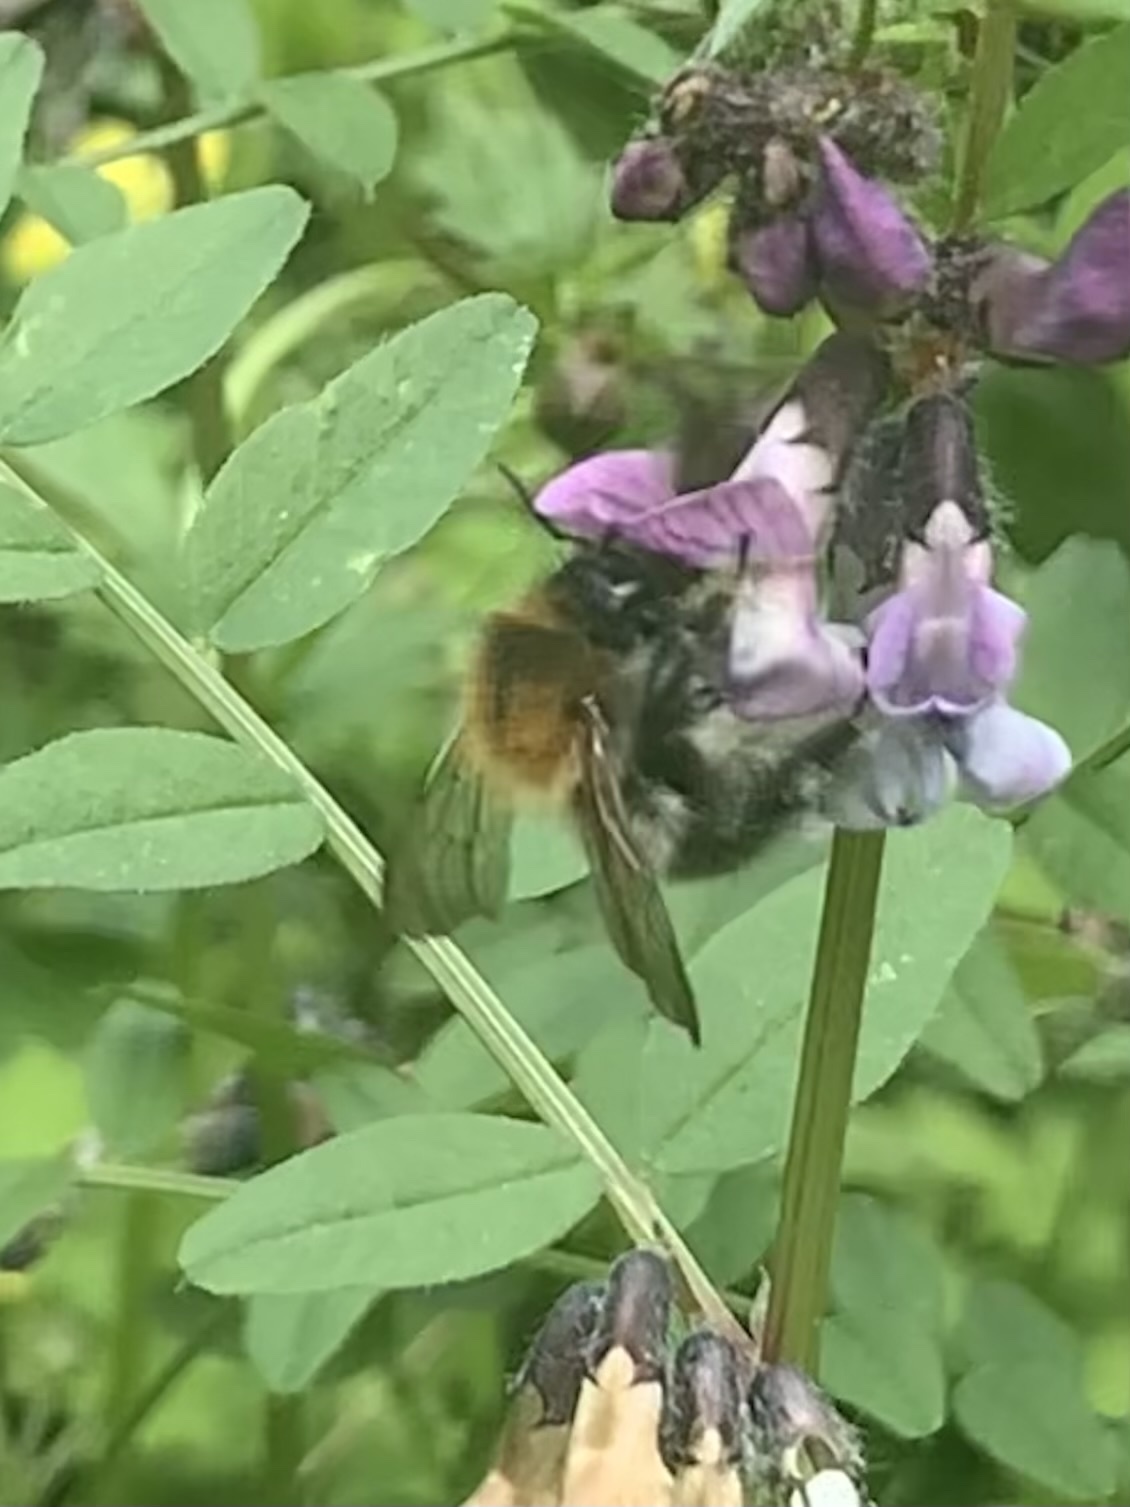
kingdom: Animalia
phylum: Arthropoda
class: Insecta
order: Hymenoptera
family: Apidae
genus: Bombus
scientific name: Bombus pascuorum
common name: Common carder bee
